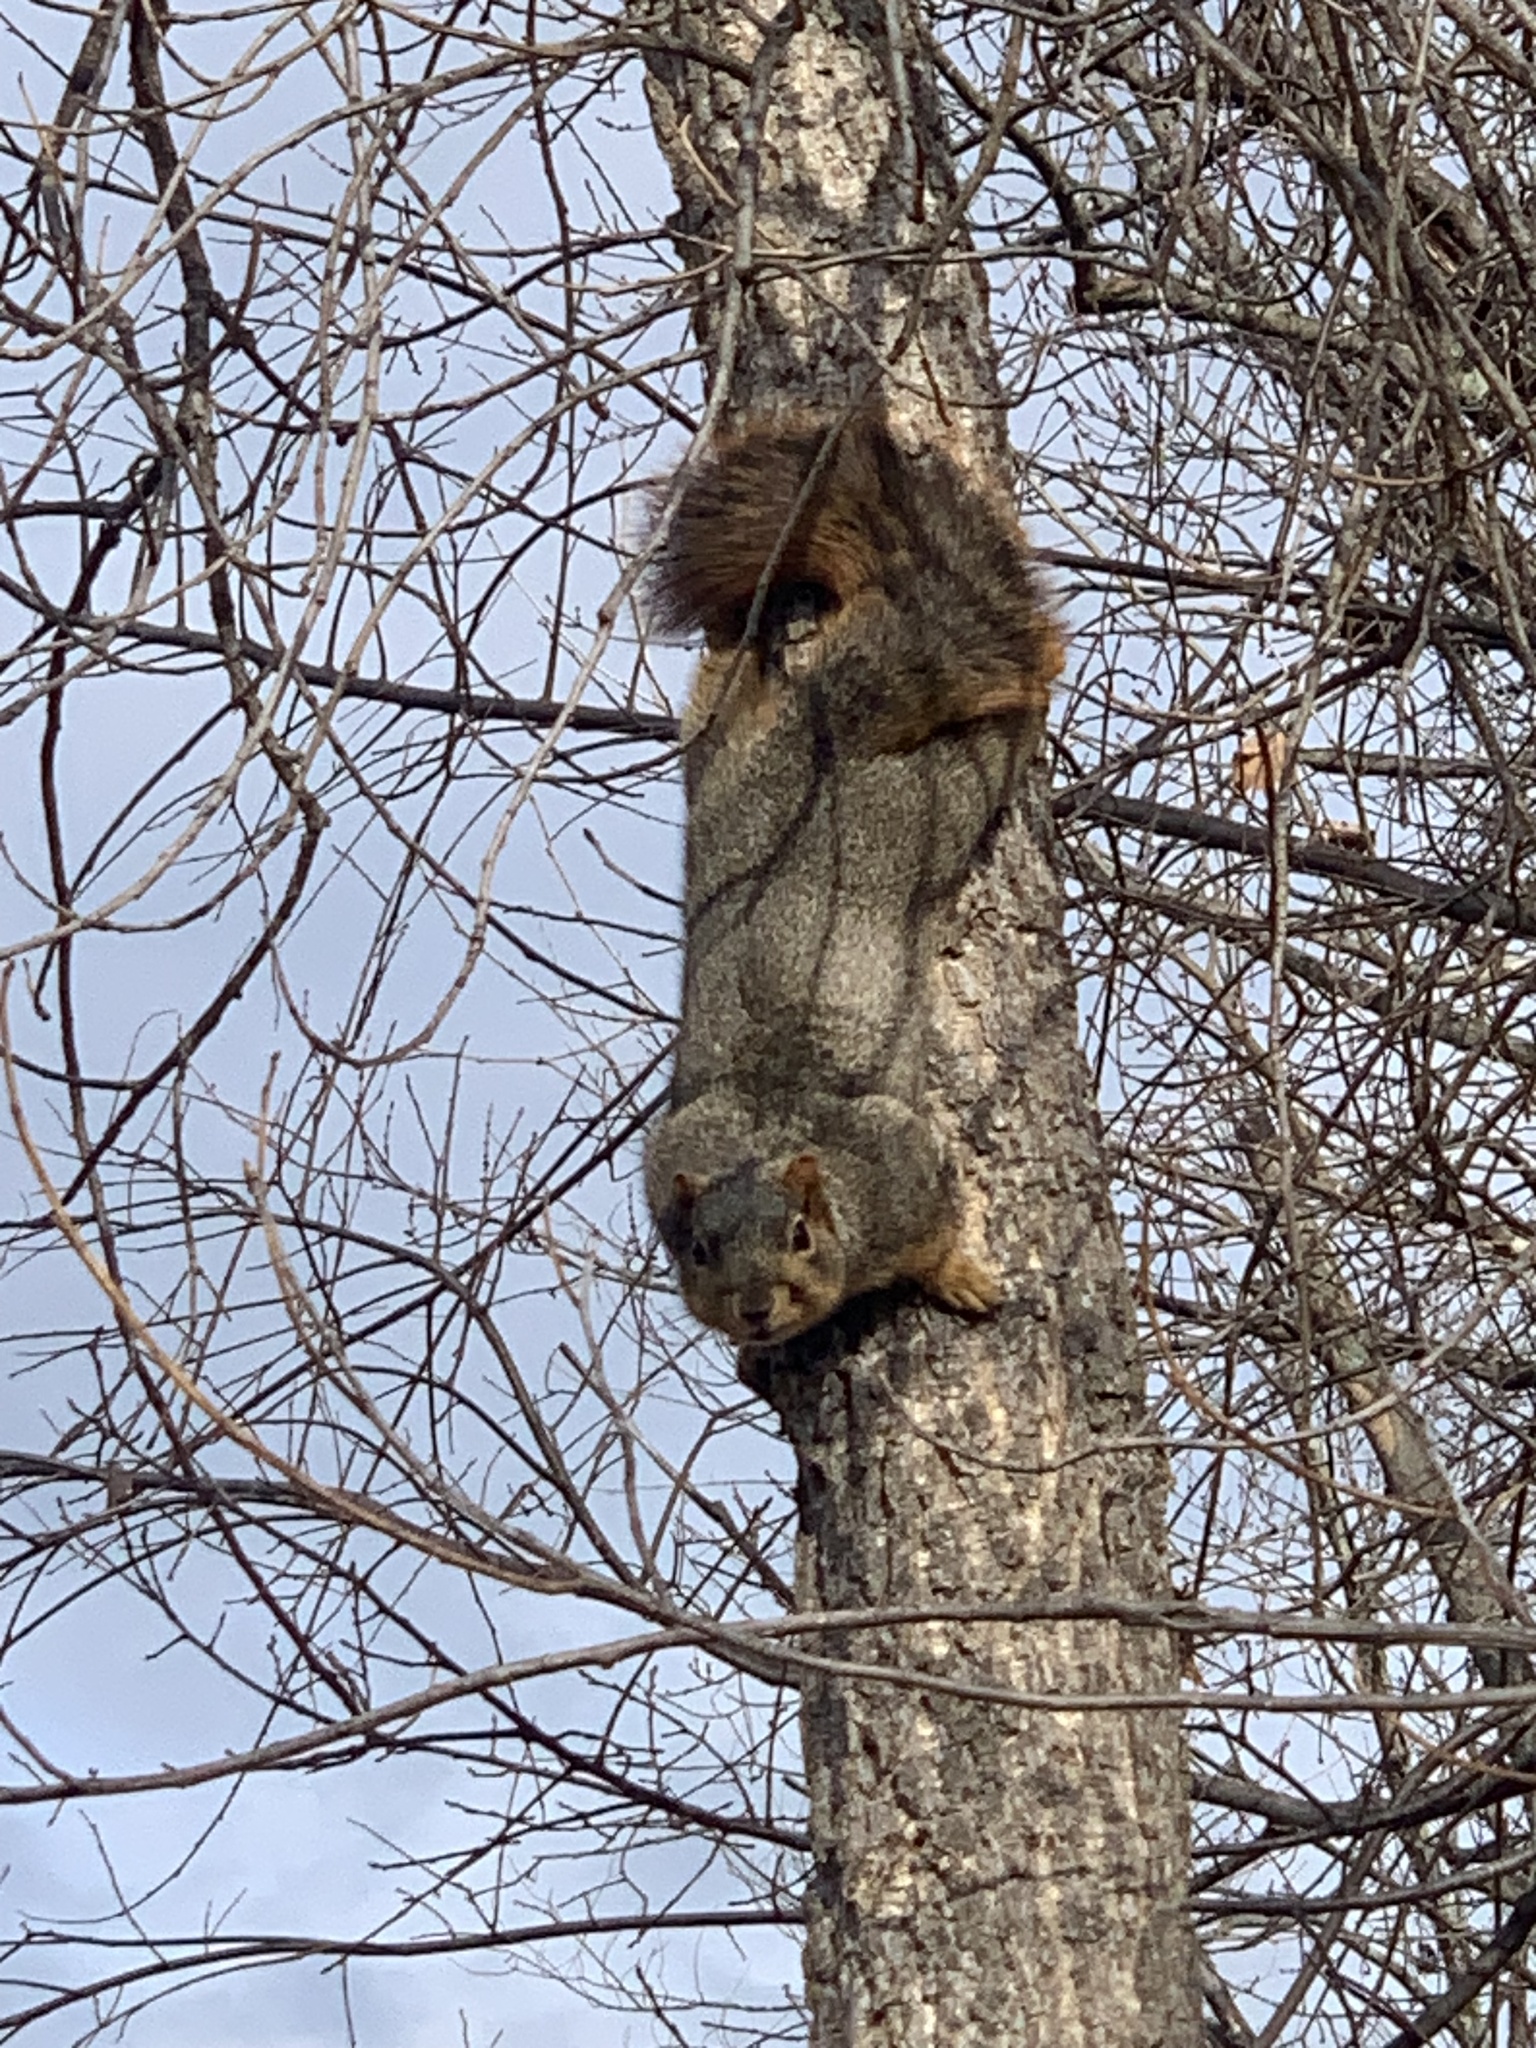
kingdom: Animalia
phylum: Chordata
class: Mammalia
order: Rodentia
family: Sciuridae
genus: Sciurus
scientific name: Sciurus niger
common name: Fox squirrel
